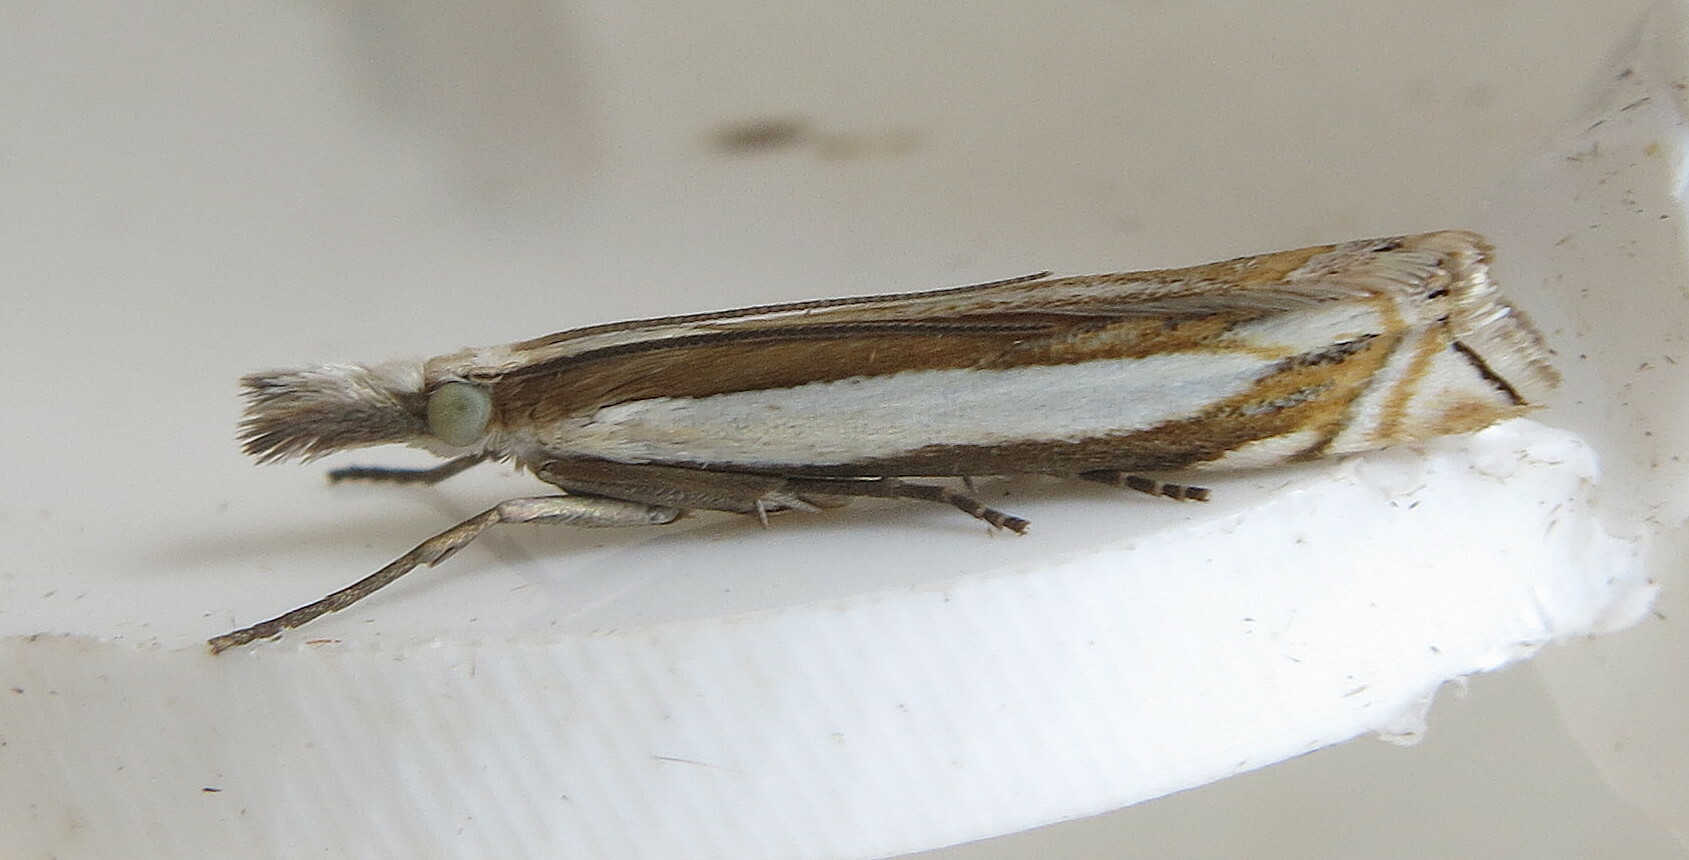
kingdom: Animalia
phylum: Arthropoda
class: Insecta
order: Lepidoptera
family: Crambidae
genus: Crambus
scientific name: Crambus pascuella
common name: Inlaid grass-veneer
